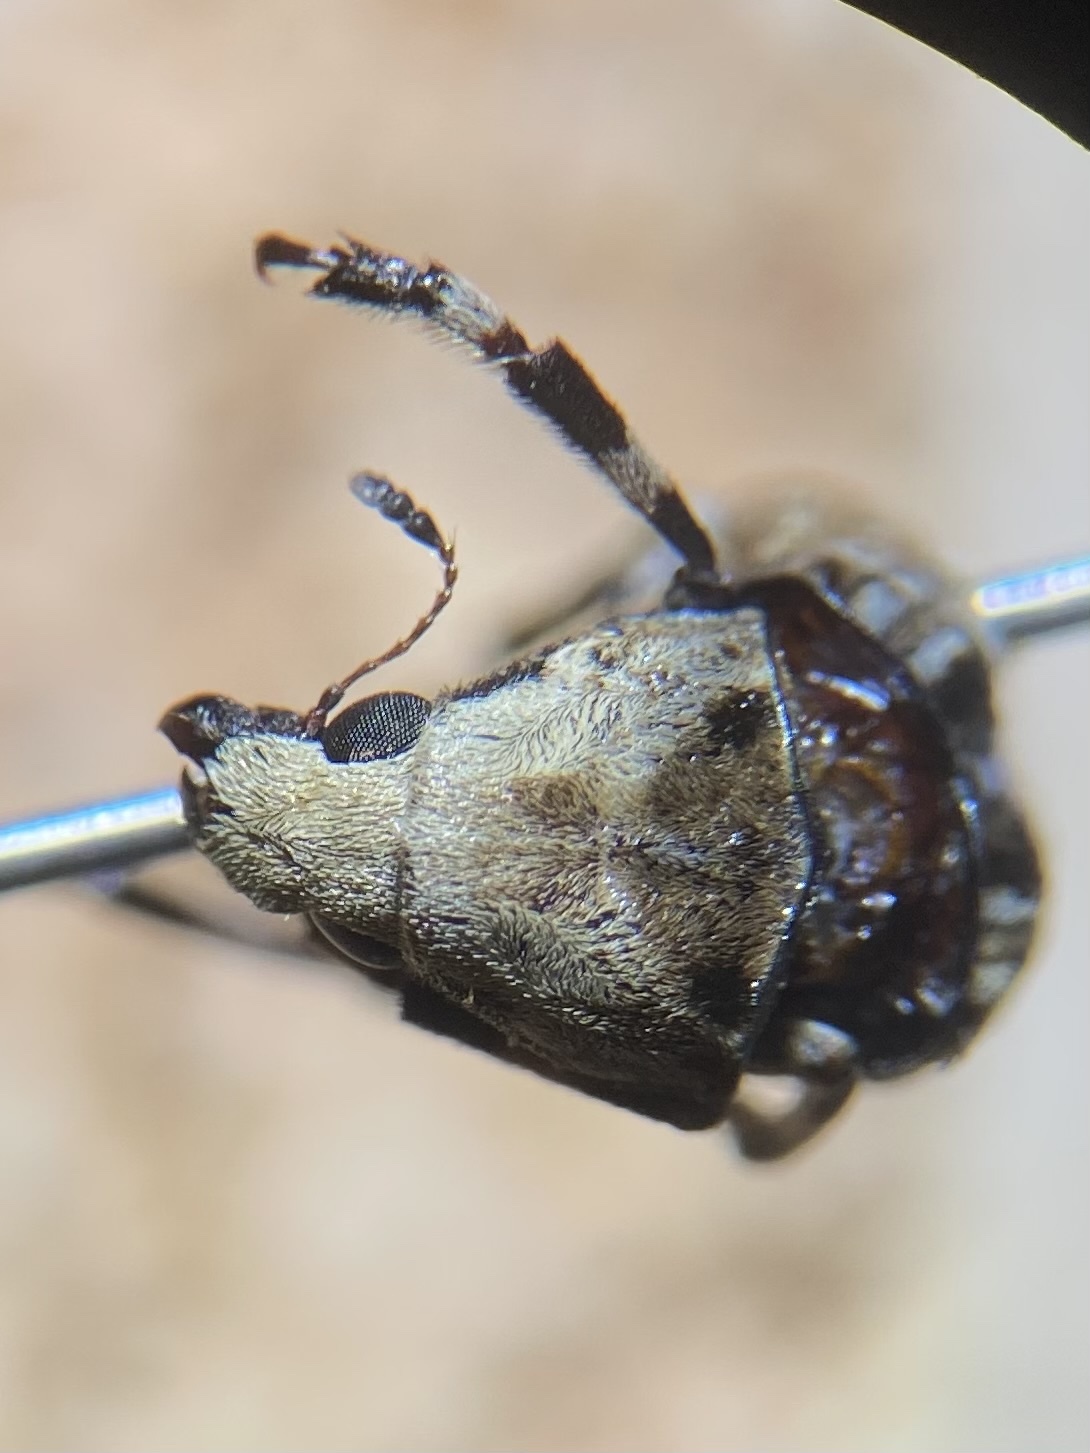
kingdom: Animalia
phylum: Arthropoda
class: Insecta
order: Coleoptera
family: Anthribidae
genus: Euparius
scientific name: Euparius marmoreus
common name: Marbled fungus weevil
